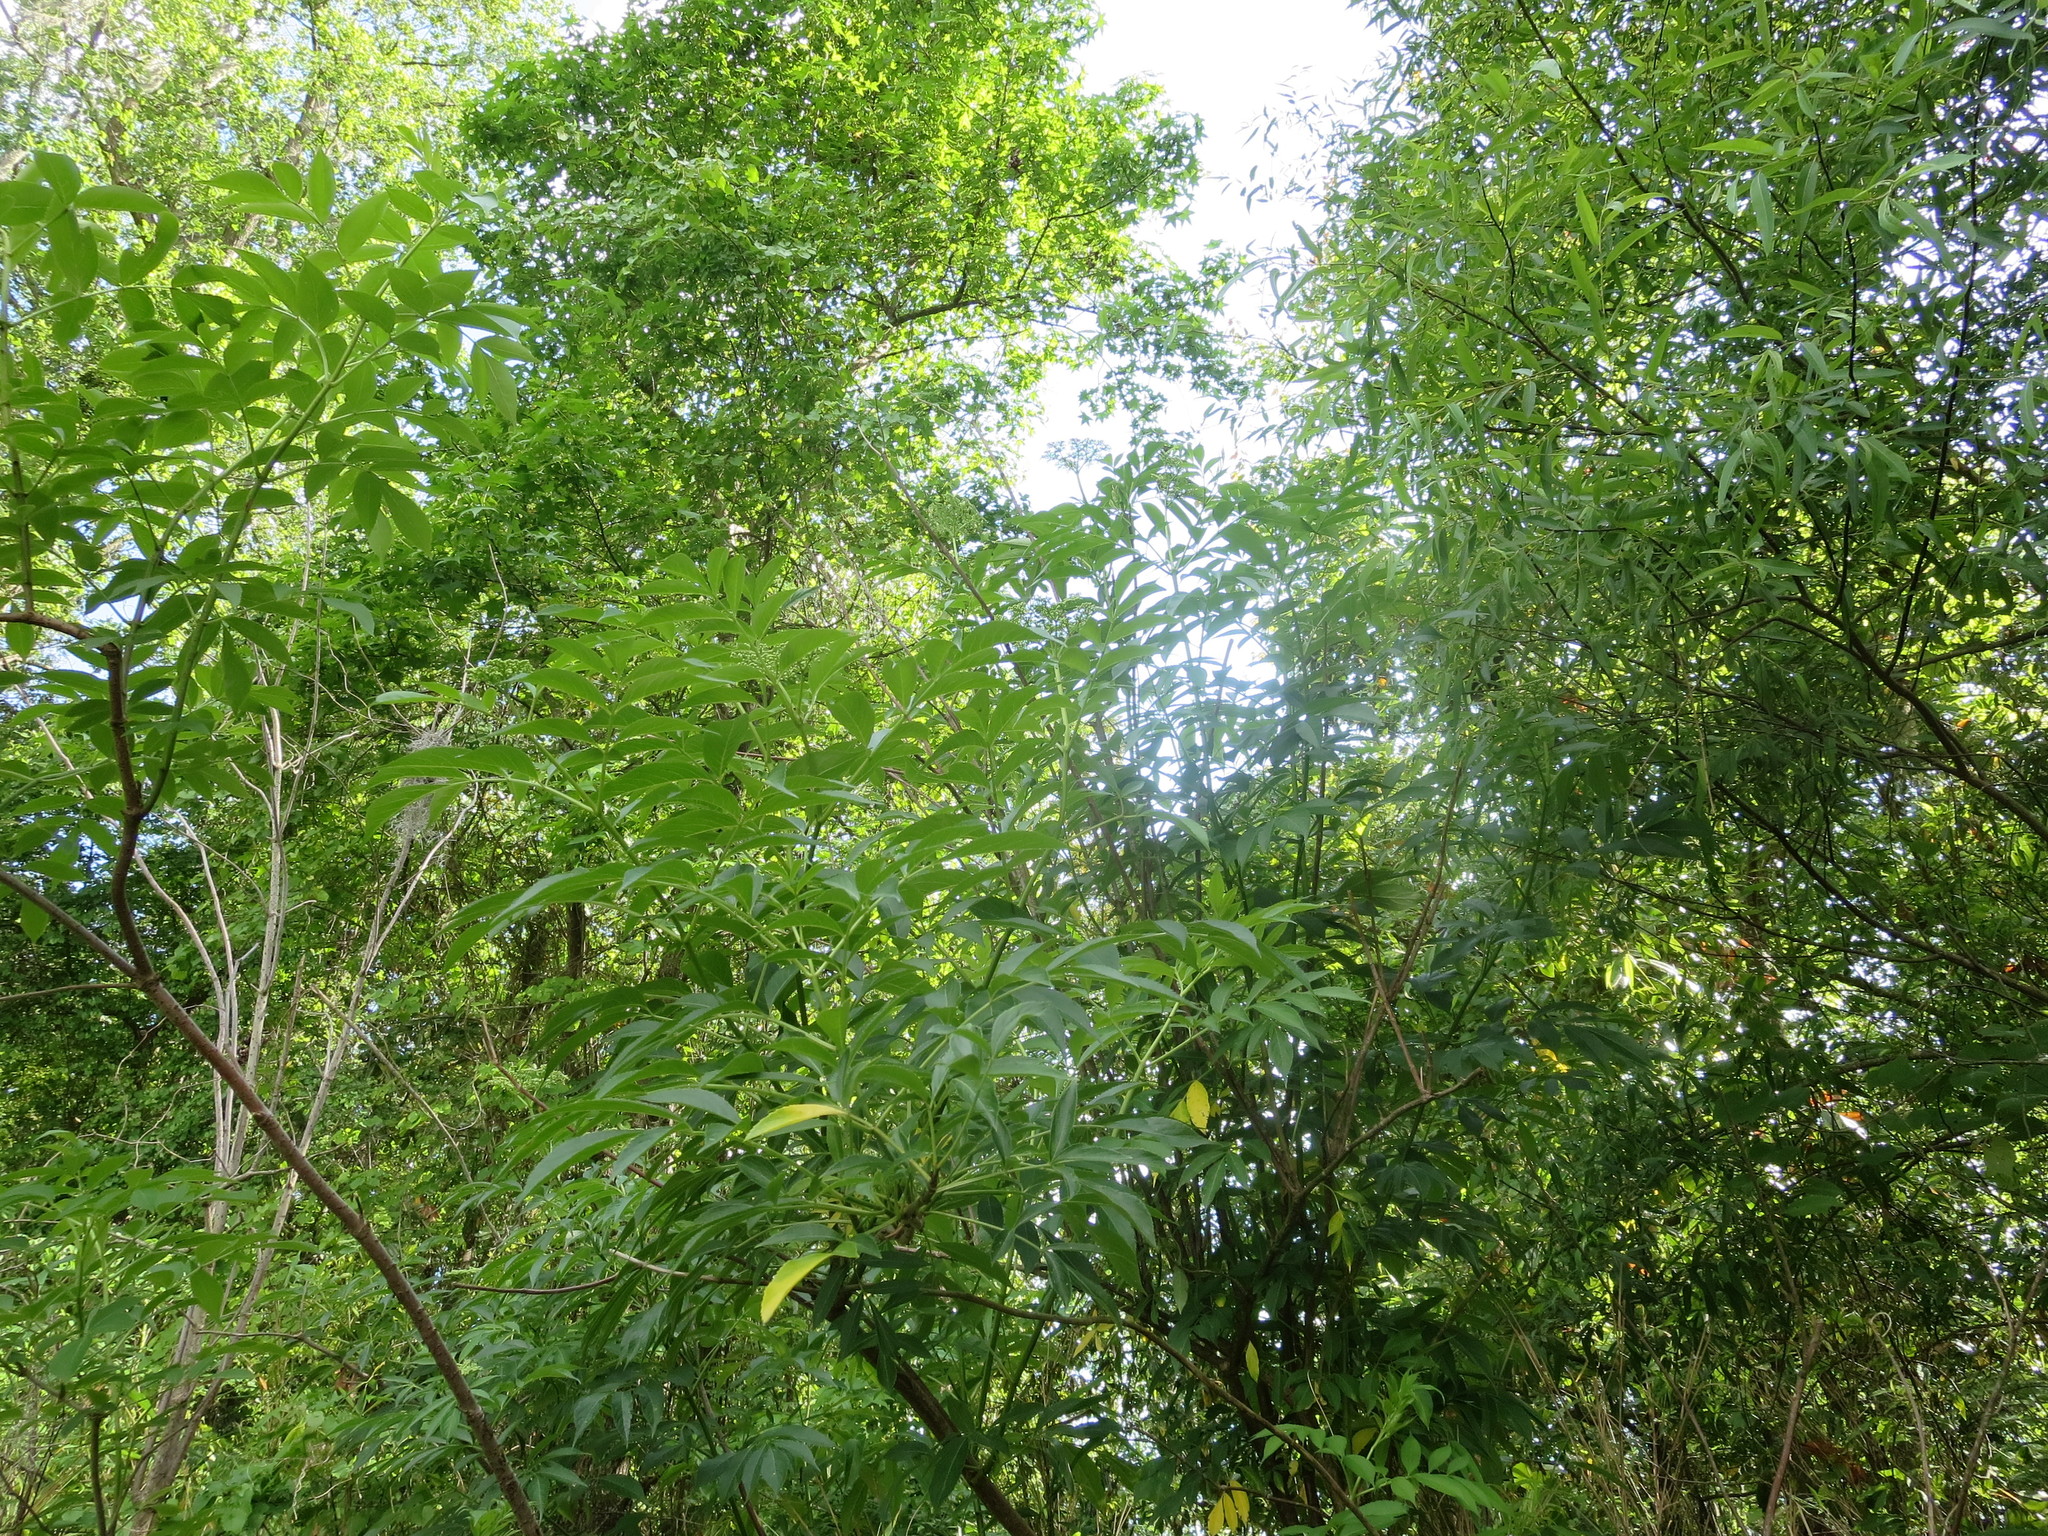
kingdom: Plantae
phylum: Tracheophyta
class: Magnoliopsida
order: Dipsacales
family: Viburnaceae
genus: Sambucus
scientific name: Sambucus canadensis
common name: American elder
